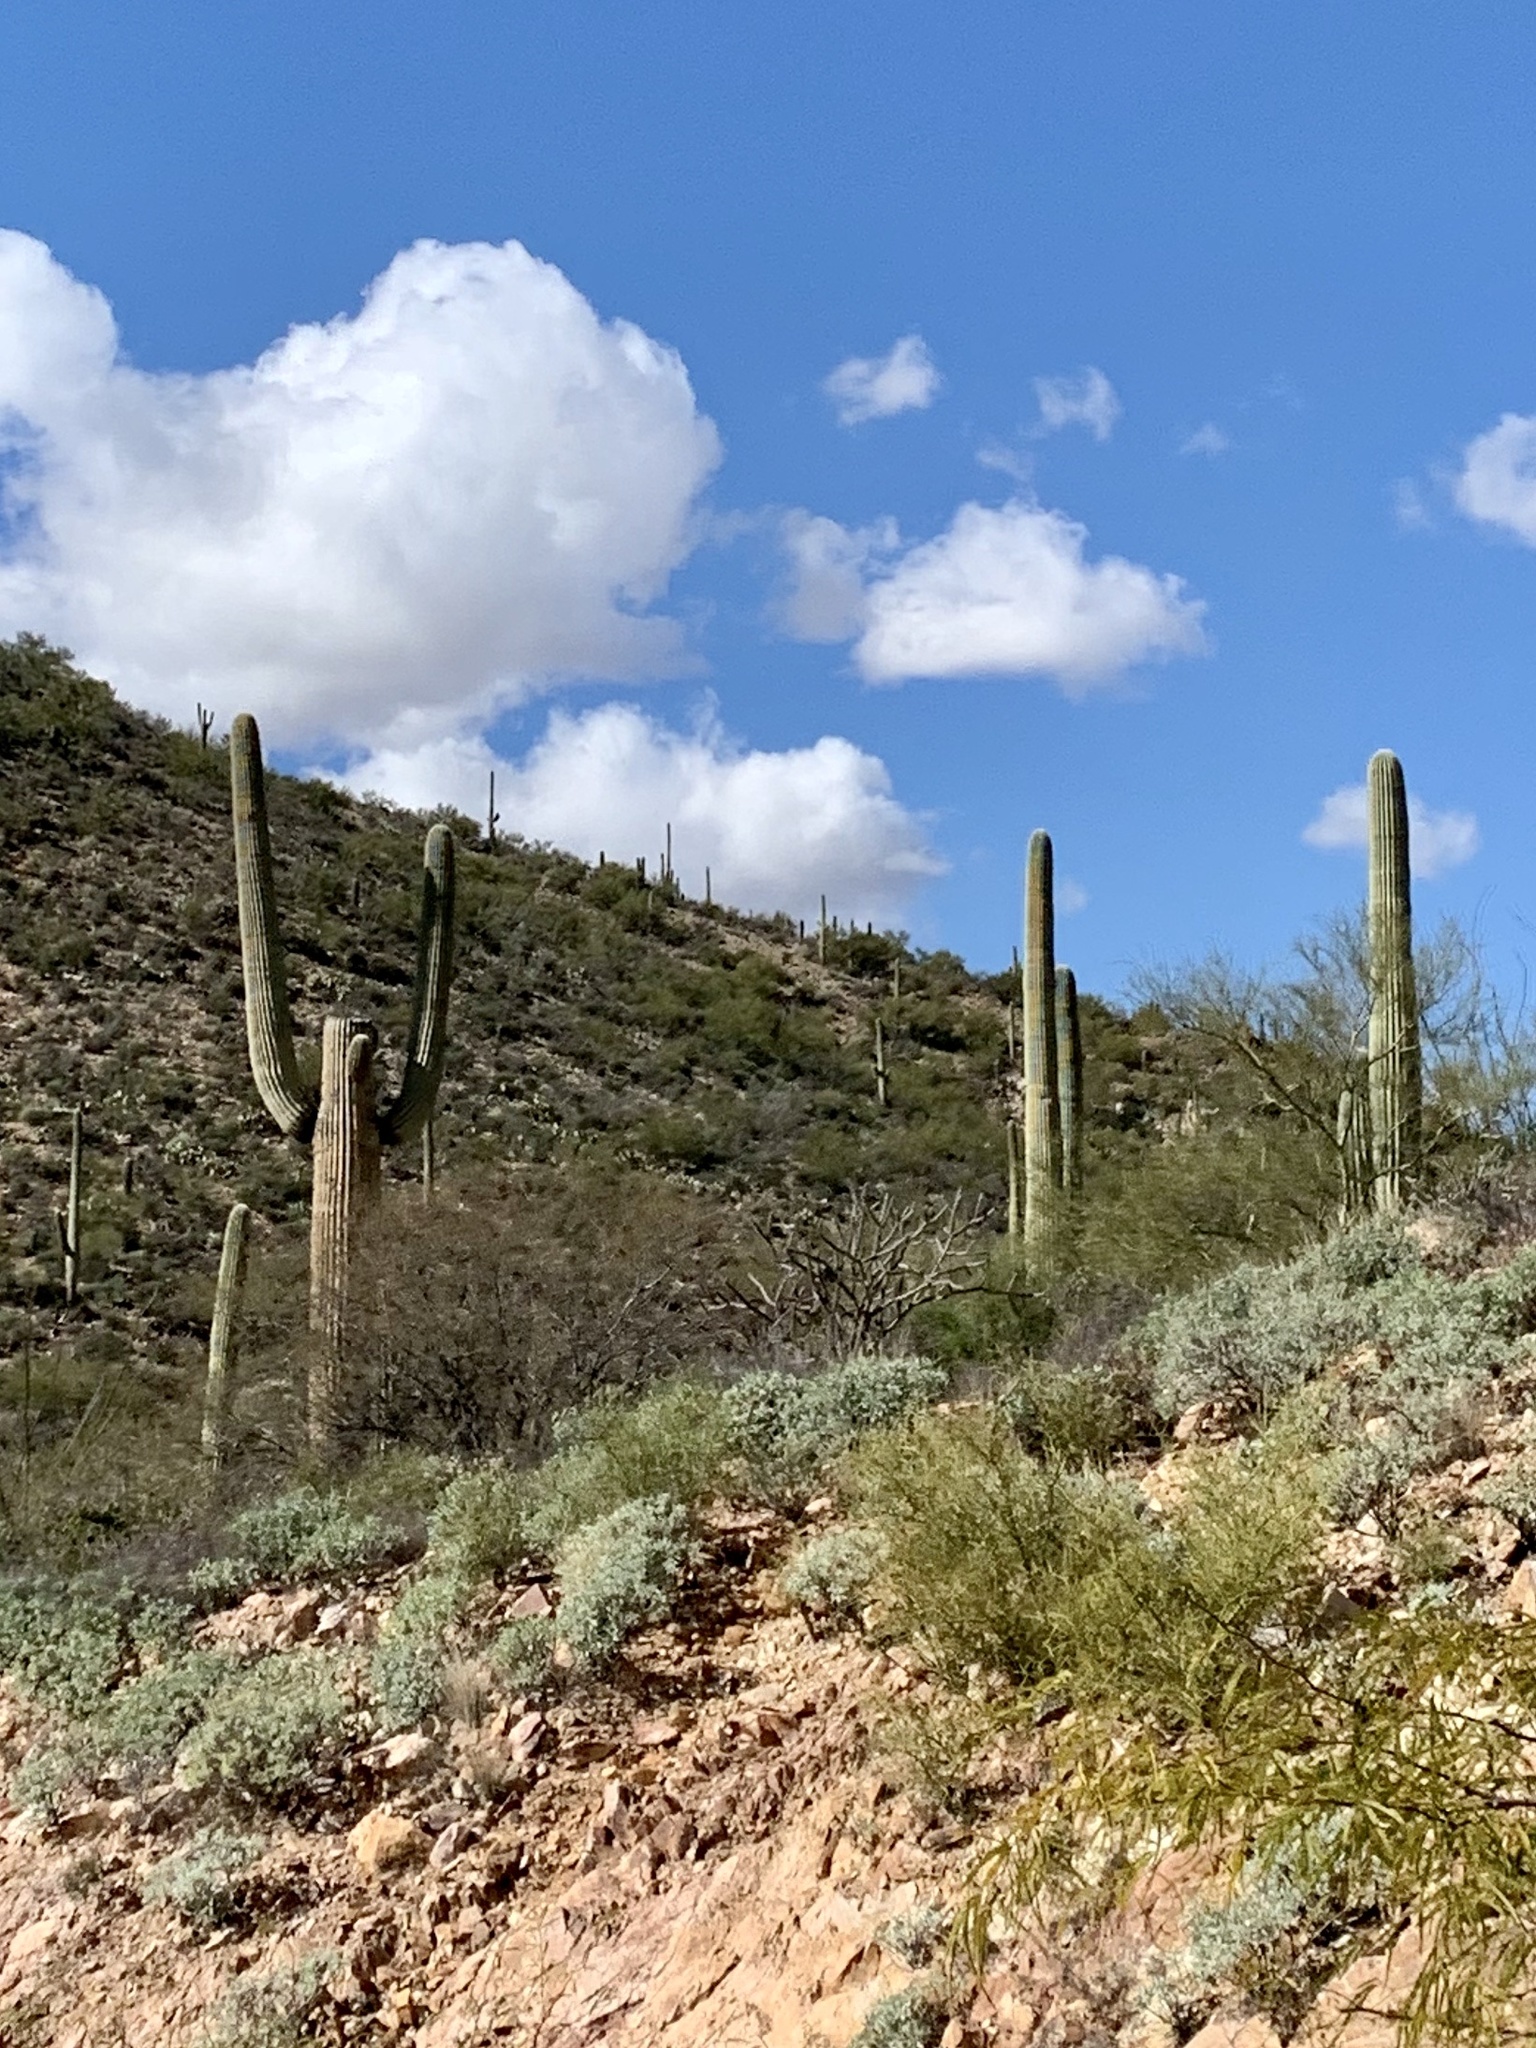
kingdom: Plantae
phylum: Tracheophyta
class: Magnoliopsida
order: Caryophyllales
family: Cactaceae
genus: Carnegiea
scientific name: Carnegiea gigantea
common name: Saguaro
